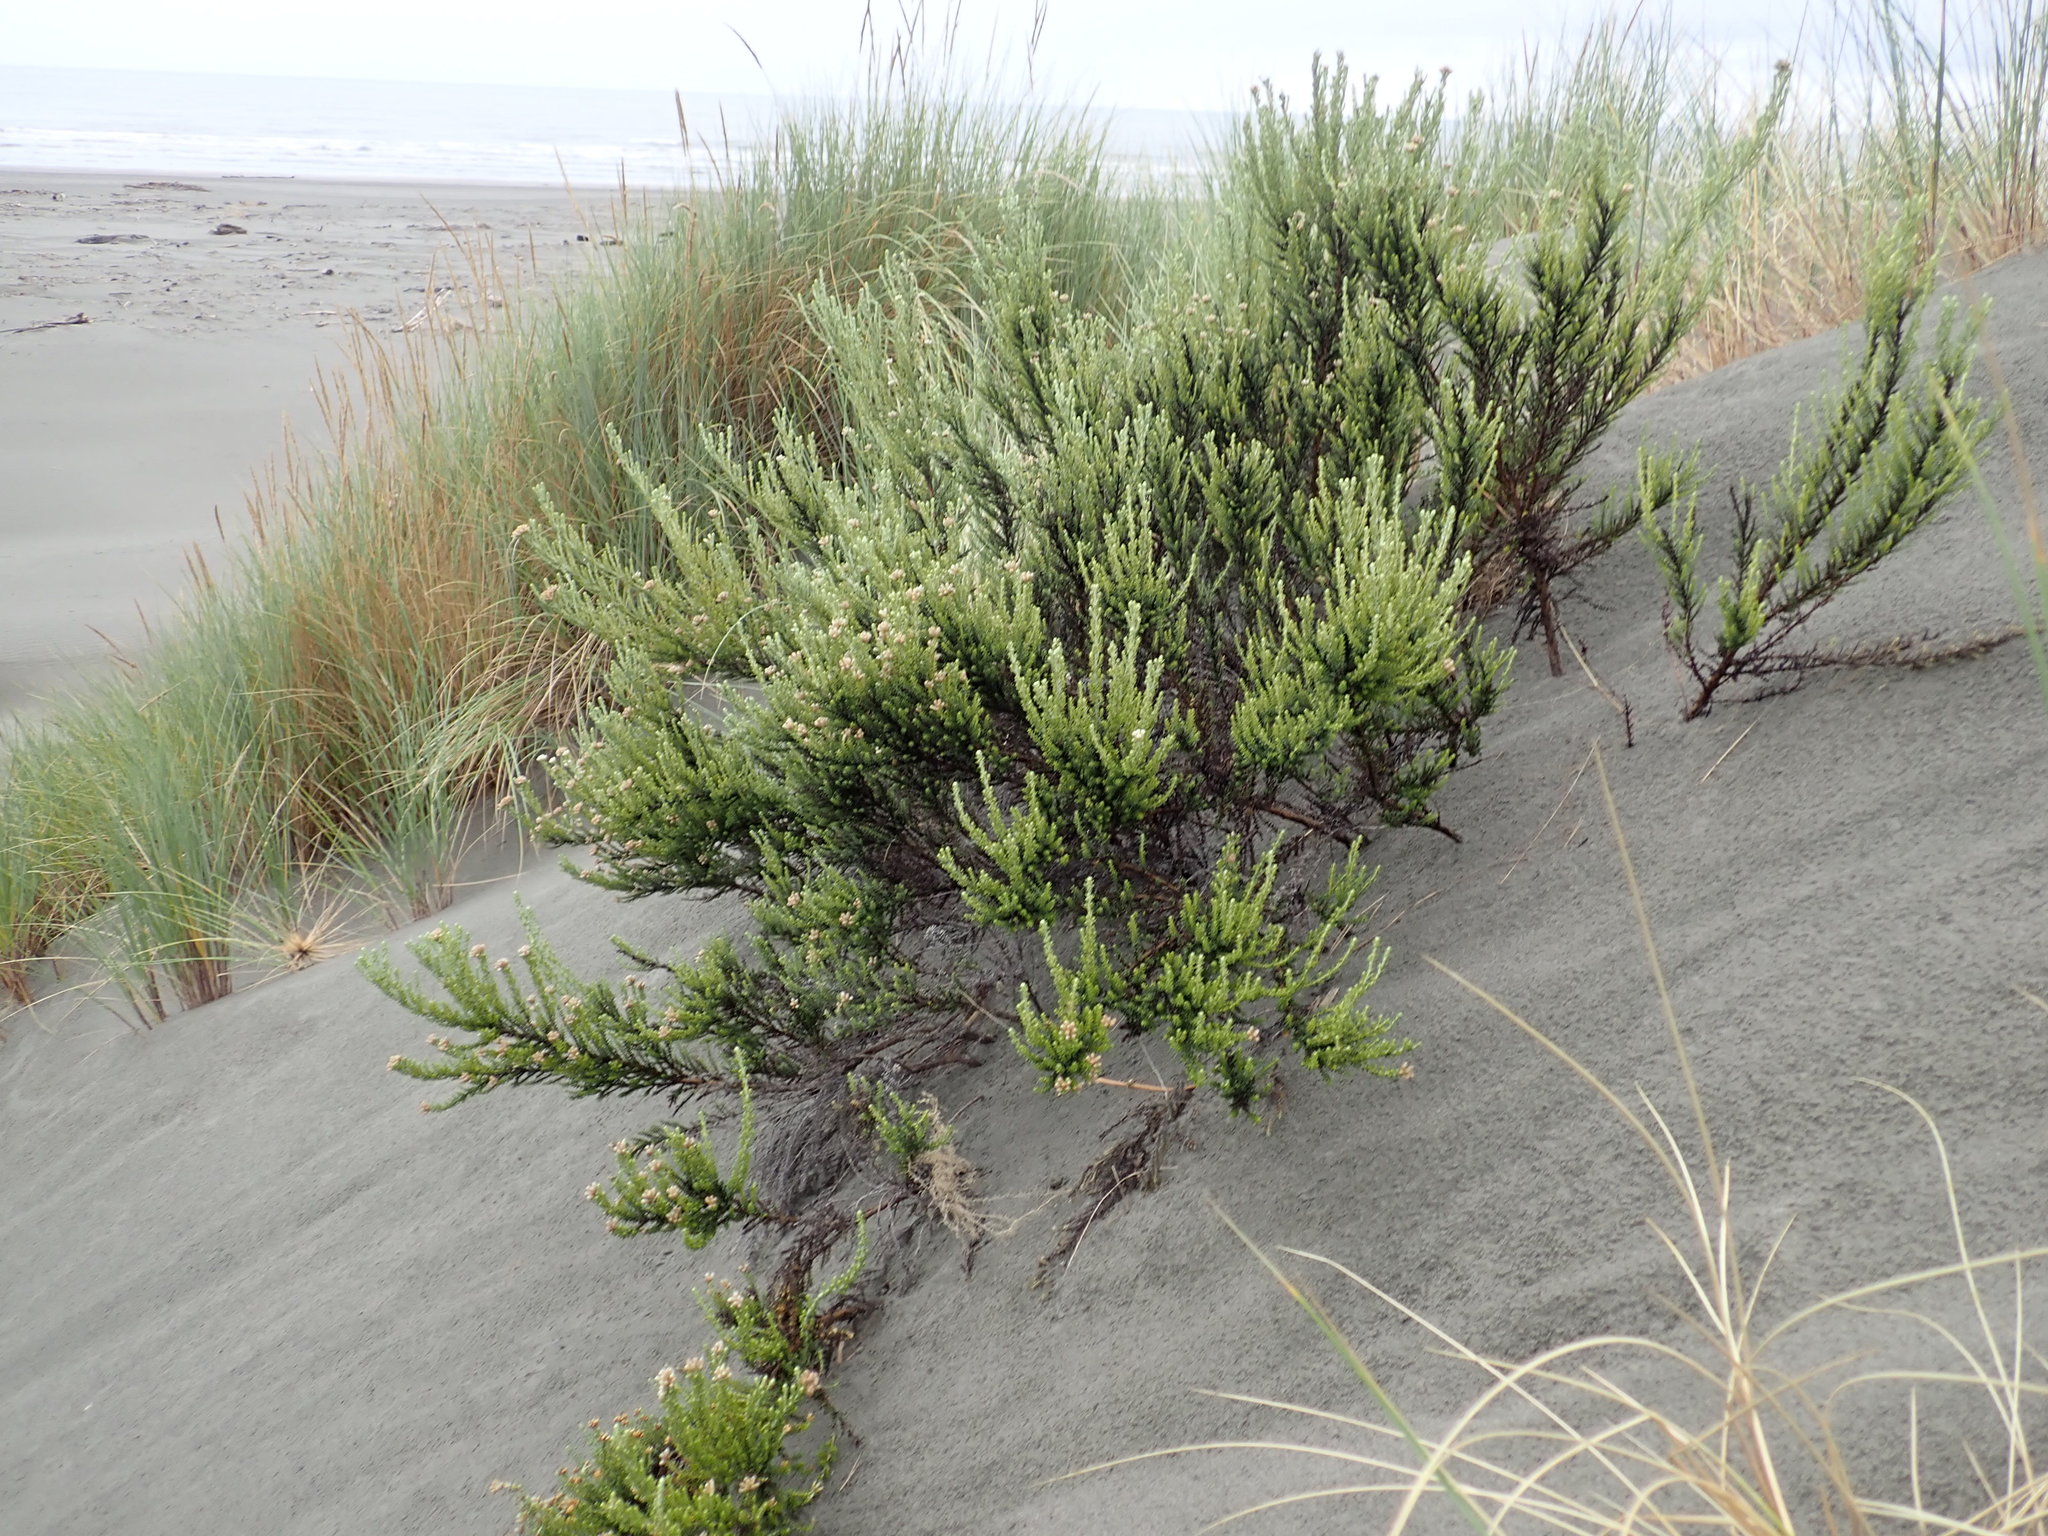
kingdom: Plantae
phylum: Tracheophyta
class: Magnoliopsida
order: Asterales
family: Asteraceae
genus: Ozothamnus
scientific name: Ozothamnus leptophyllus
